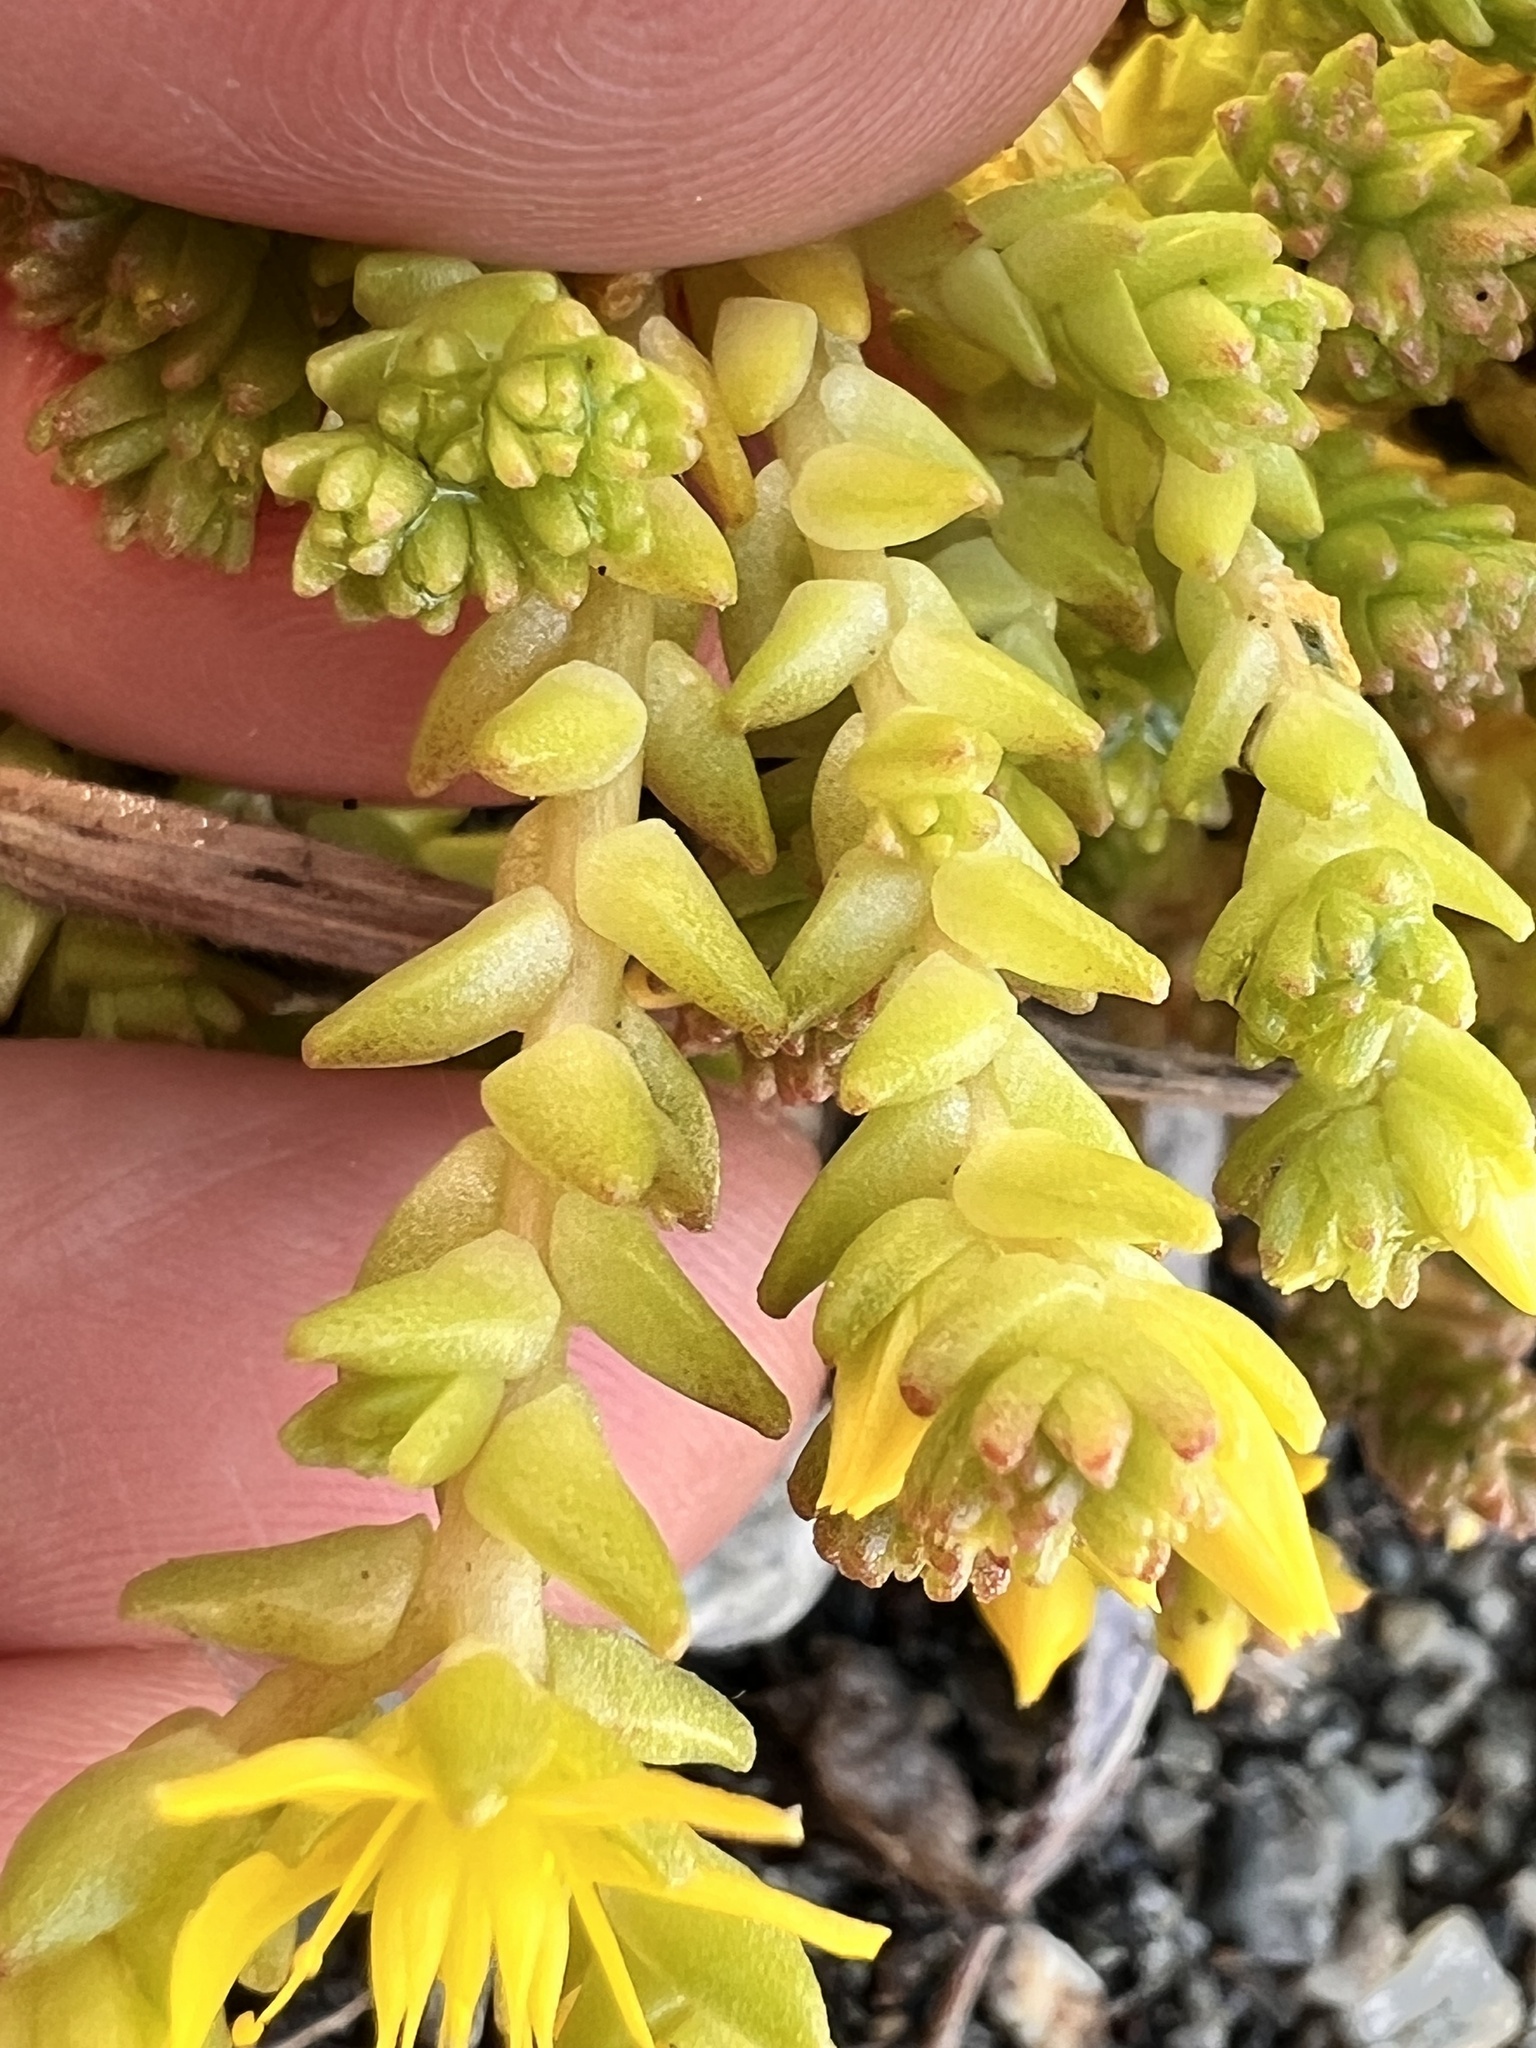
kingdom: Plantae
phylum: Tracheophyta
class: Magnoliopsida
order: Saxifragales
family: Crassulaceae
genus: Sedum
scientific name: Sedum acre
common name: Biting stonecrop
